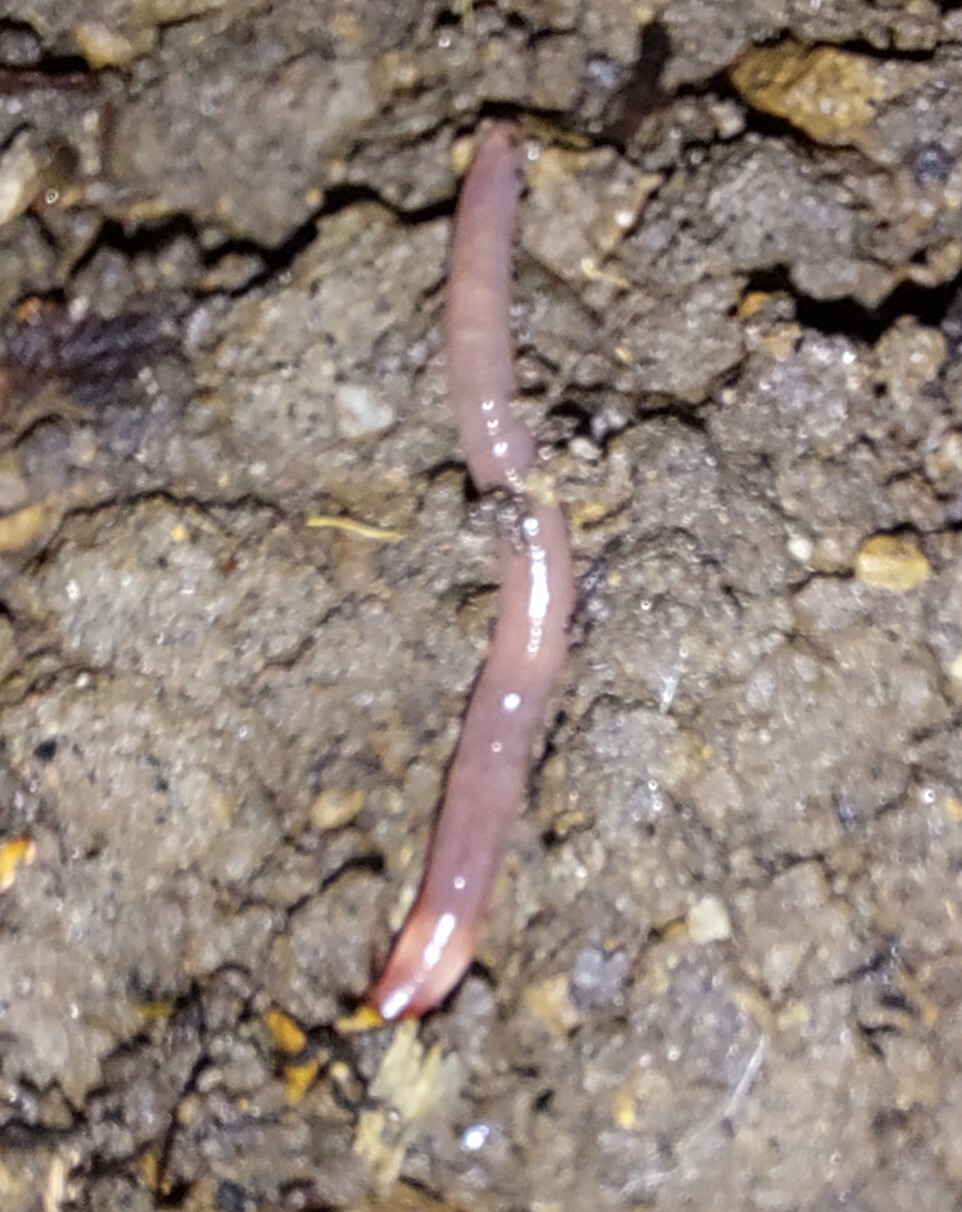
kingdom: Animalia
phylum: Annelida
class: Clitellata
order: Crassiclitellata
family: Lumbricidae
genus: Lumbricus
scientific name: Lumbricus terrestris
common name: Common earthworm
